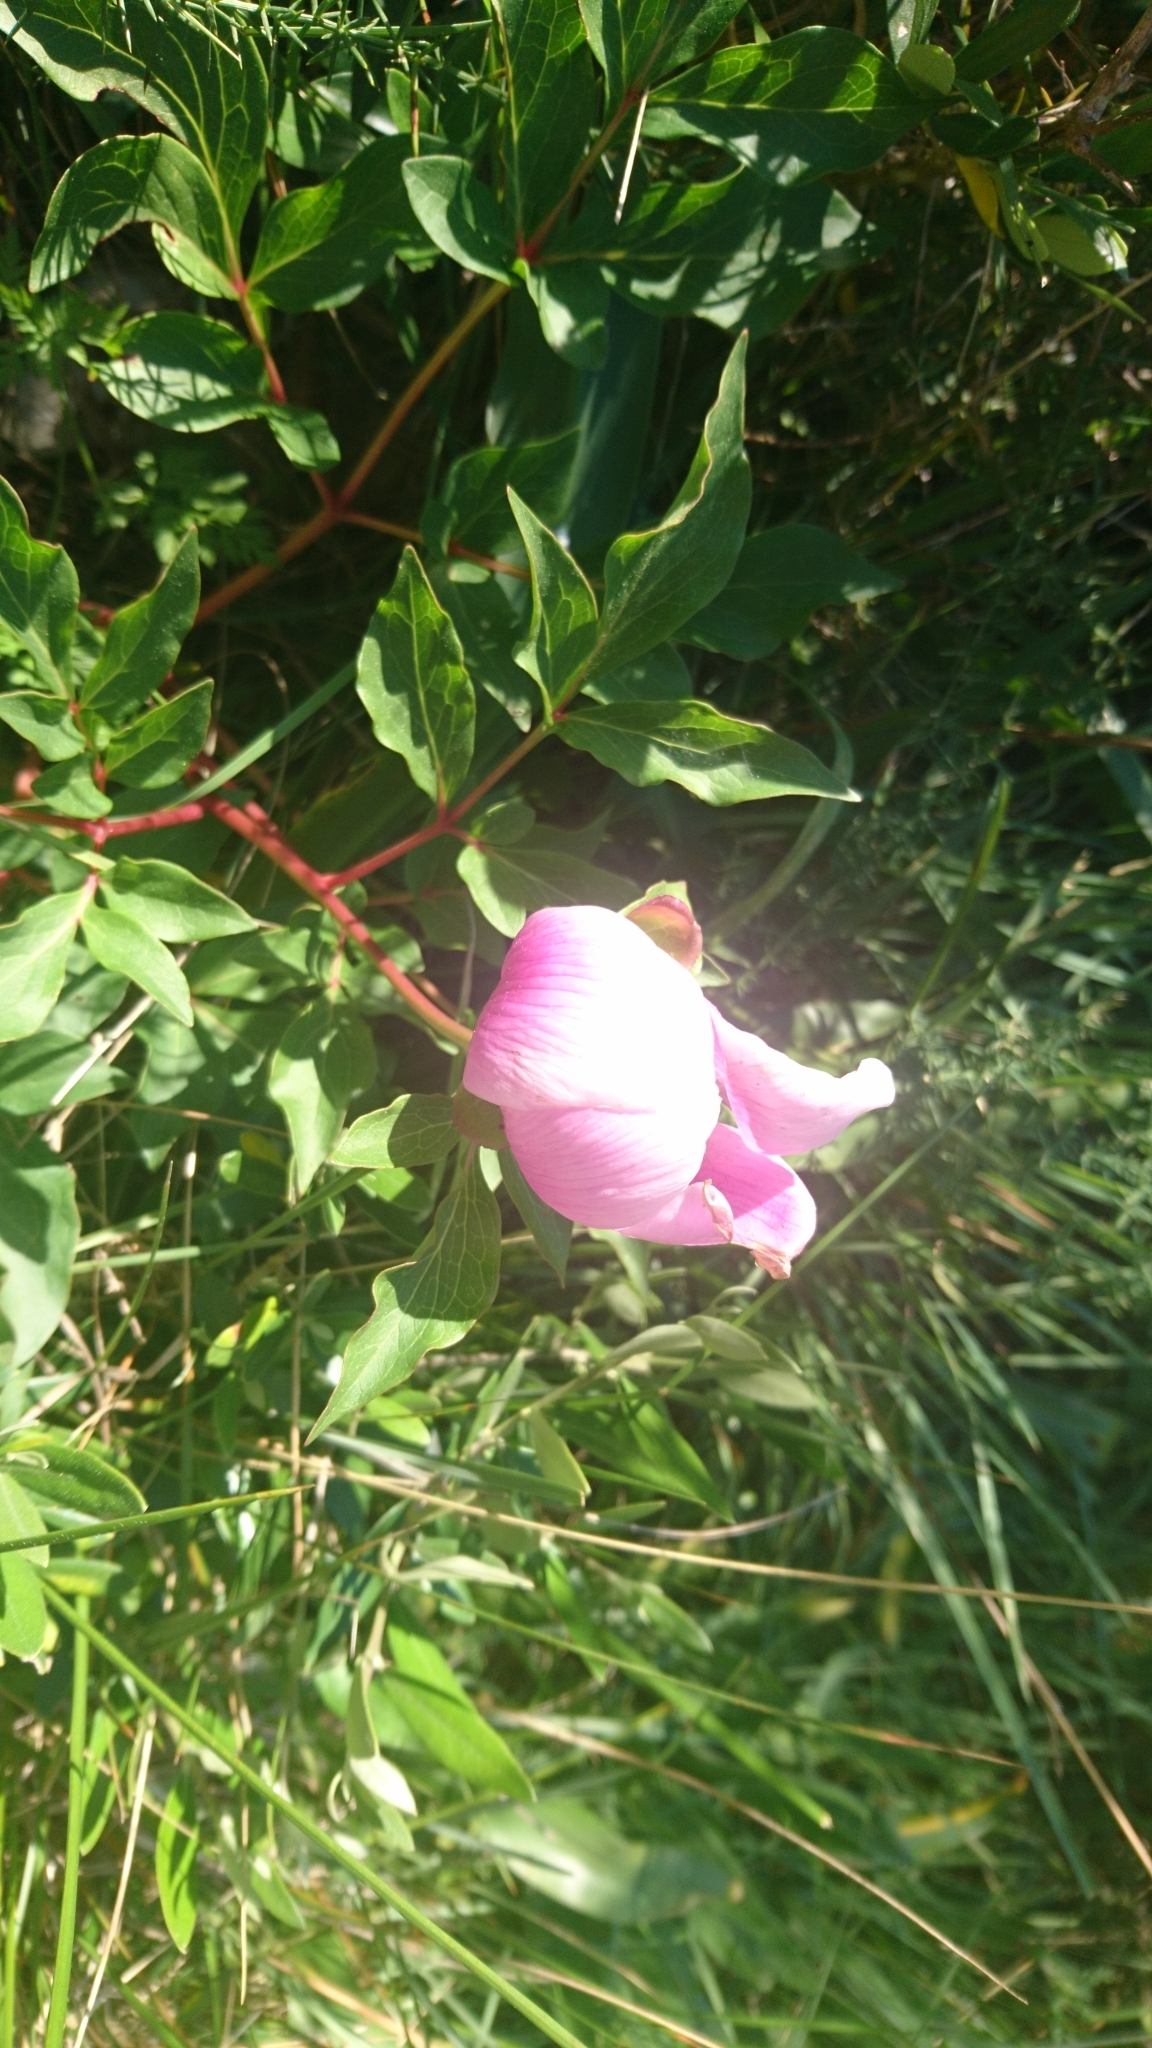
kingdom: Plantae
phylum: Tracheophyta
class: Magnoliopsida
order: Saxifragales
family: Paeoniaceae
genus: Paeonia
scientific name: Paeonia broteroi
